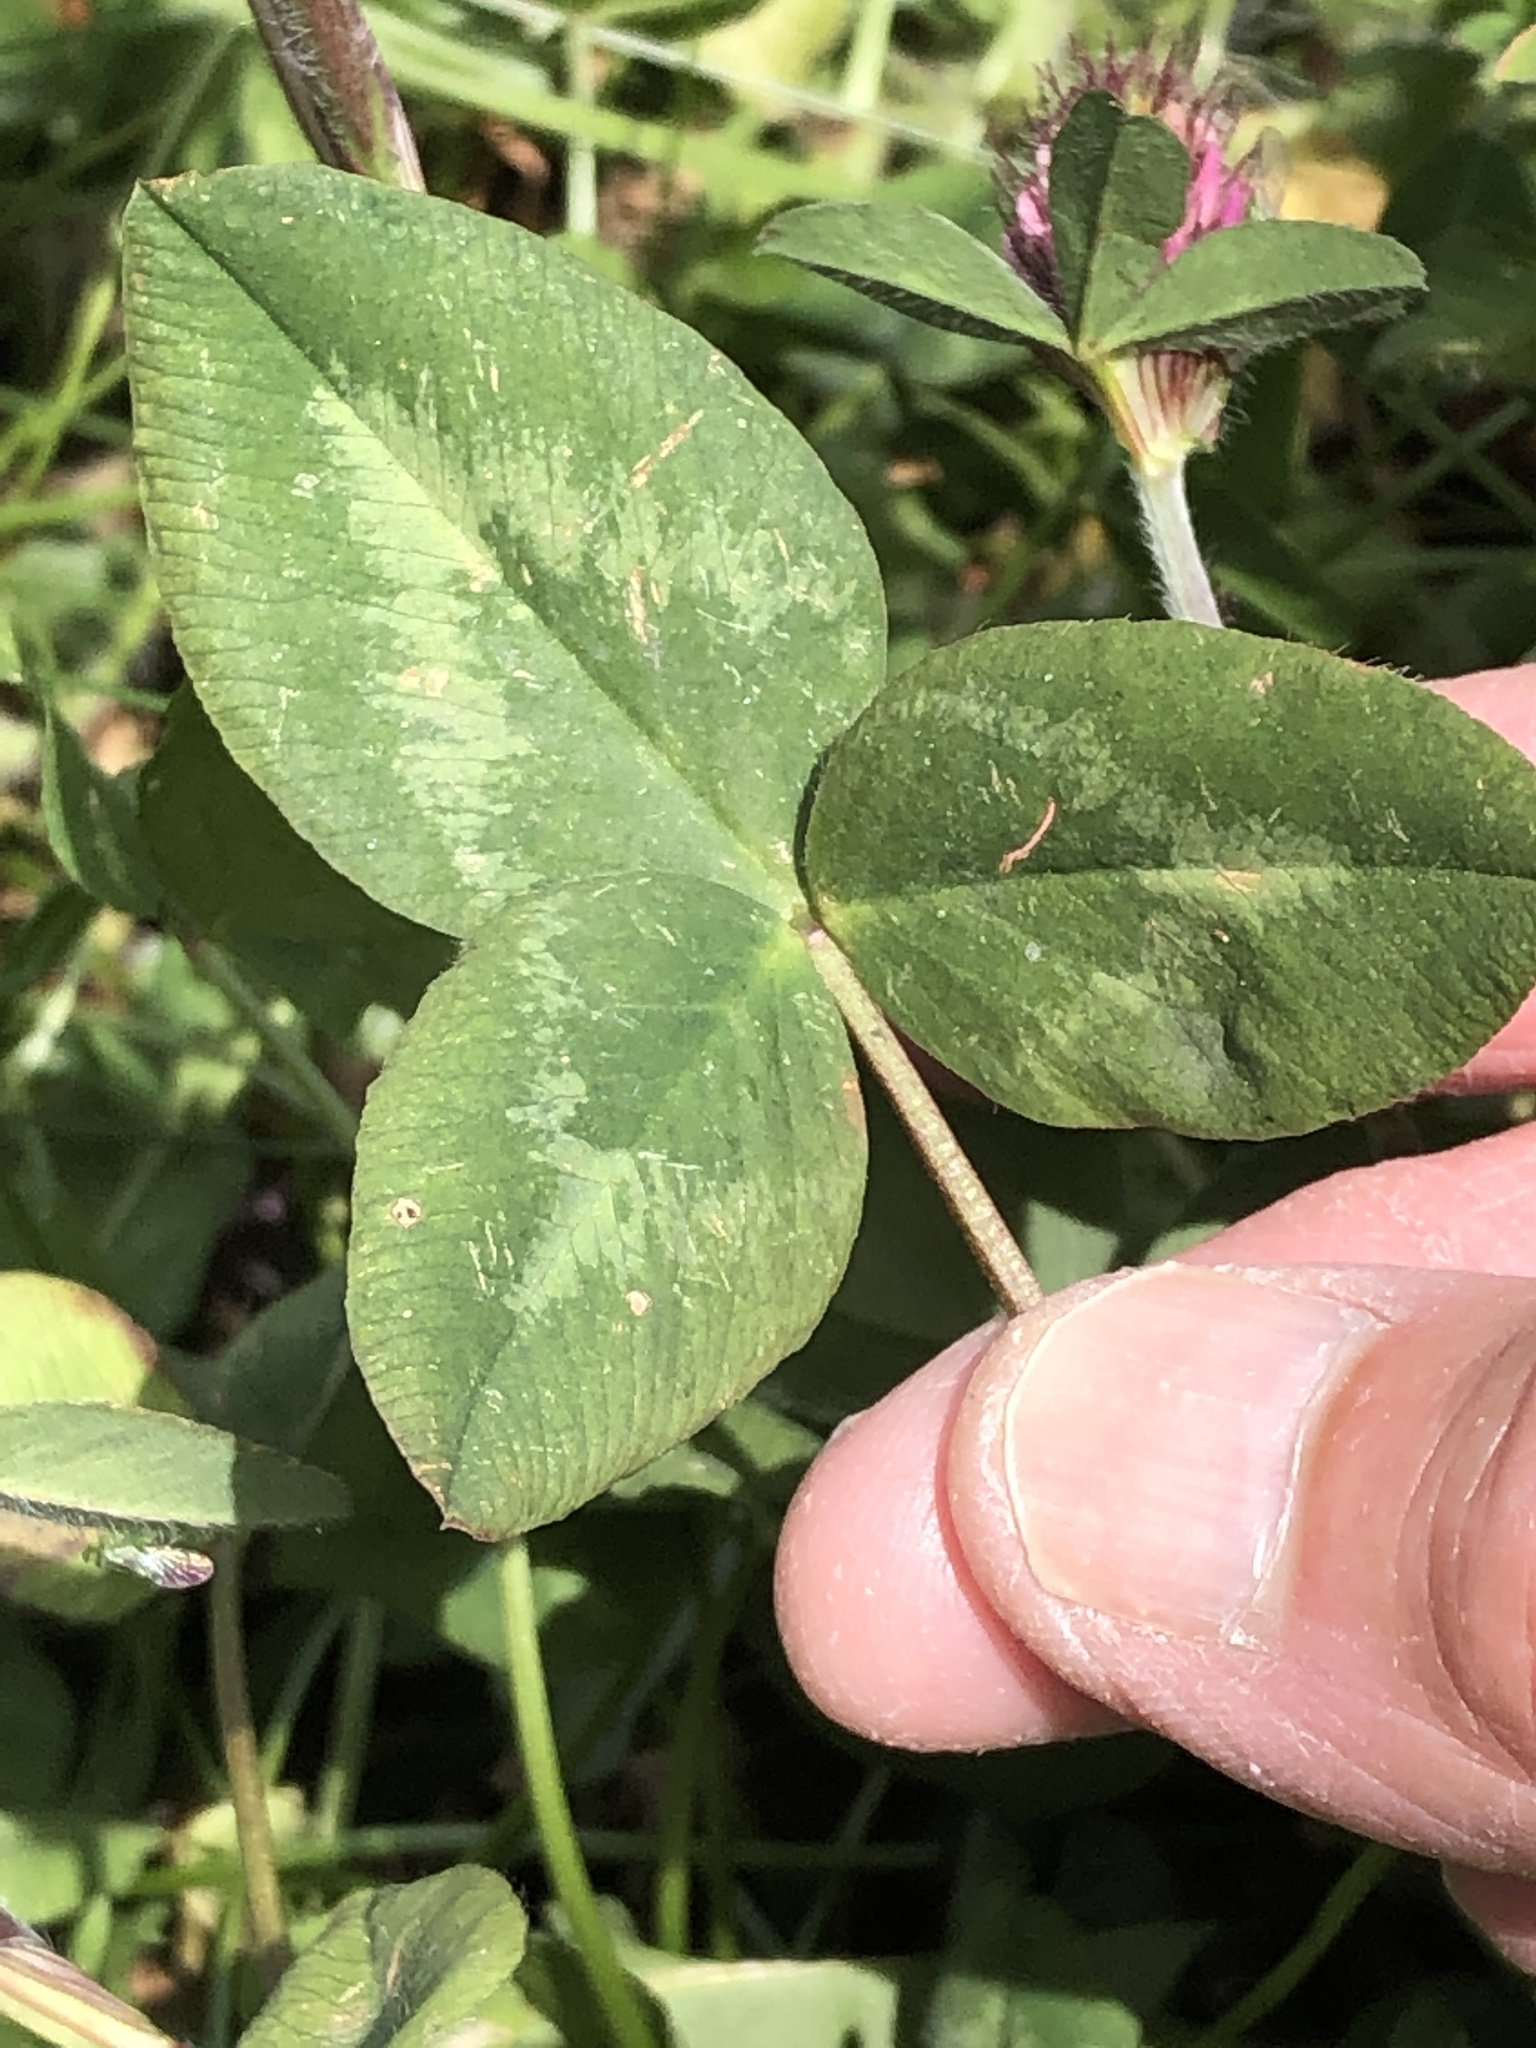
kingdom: Plantae
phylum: Tracheophyta
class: Magnoliopsida
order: Fabales
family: Fabaceae
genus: Trifolium
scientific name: Trifolium pratense
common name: Red clover
